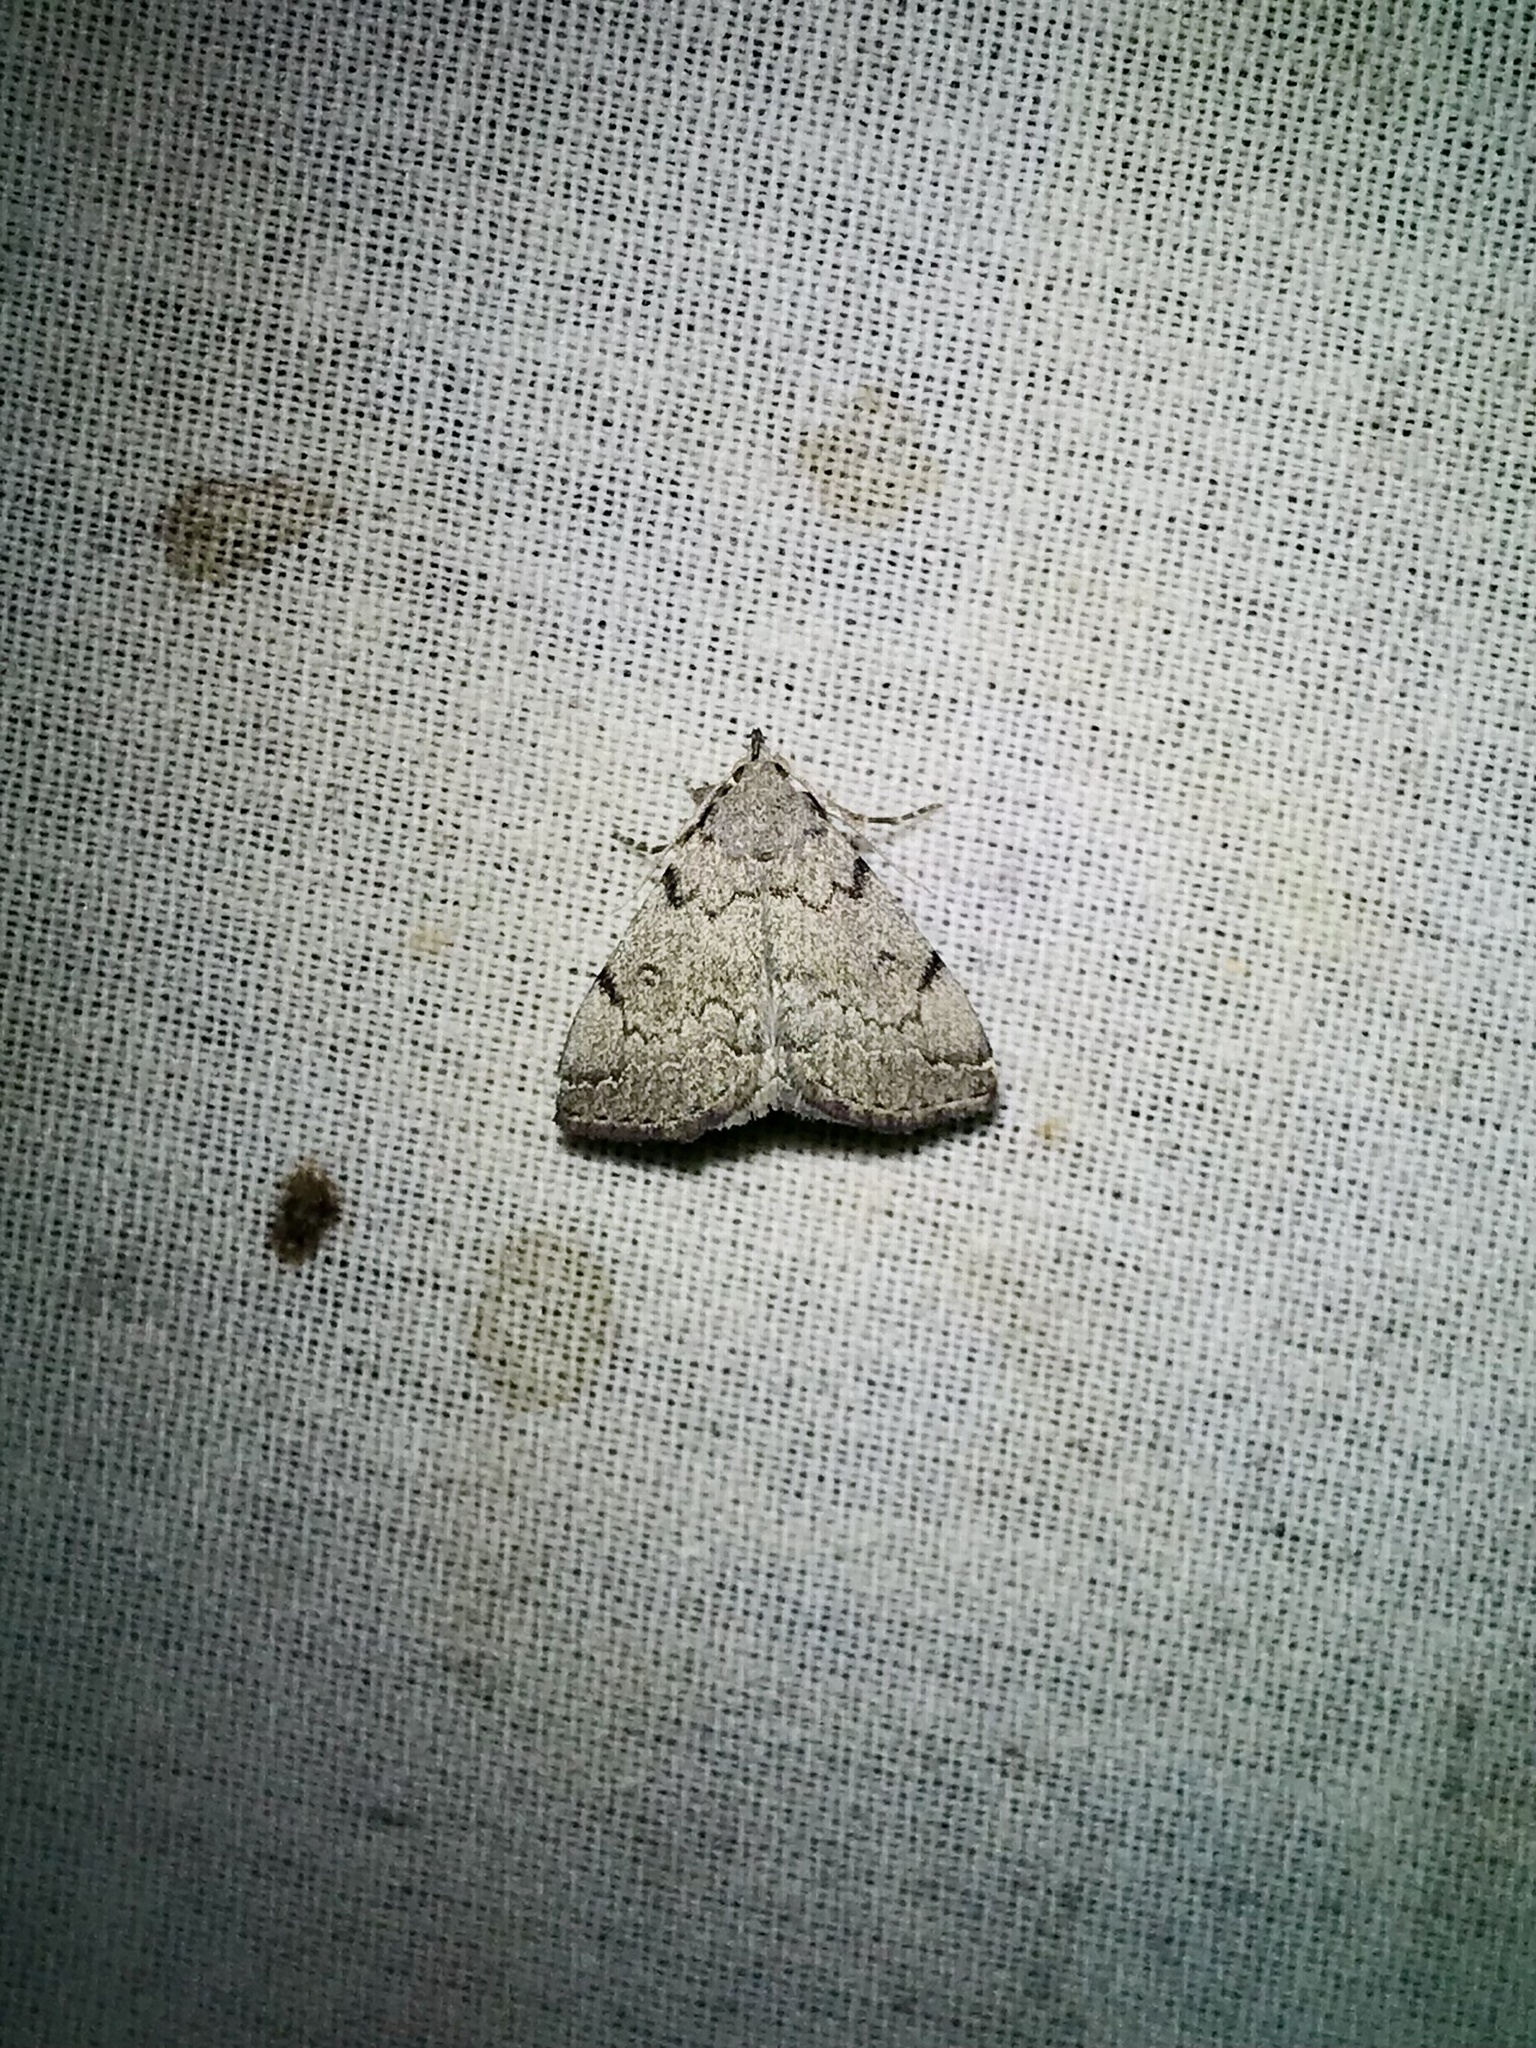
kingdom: Animalia
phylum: Arthropoda
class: Insecta
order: Lepidoptera
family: Erebidae
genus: Zanclognatha
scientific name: Zanclognatha theralis
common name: Flagged fan-foot
